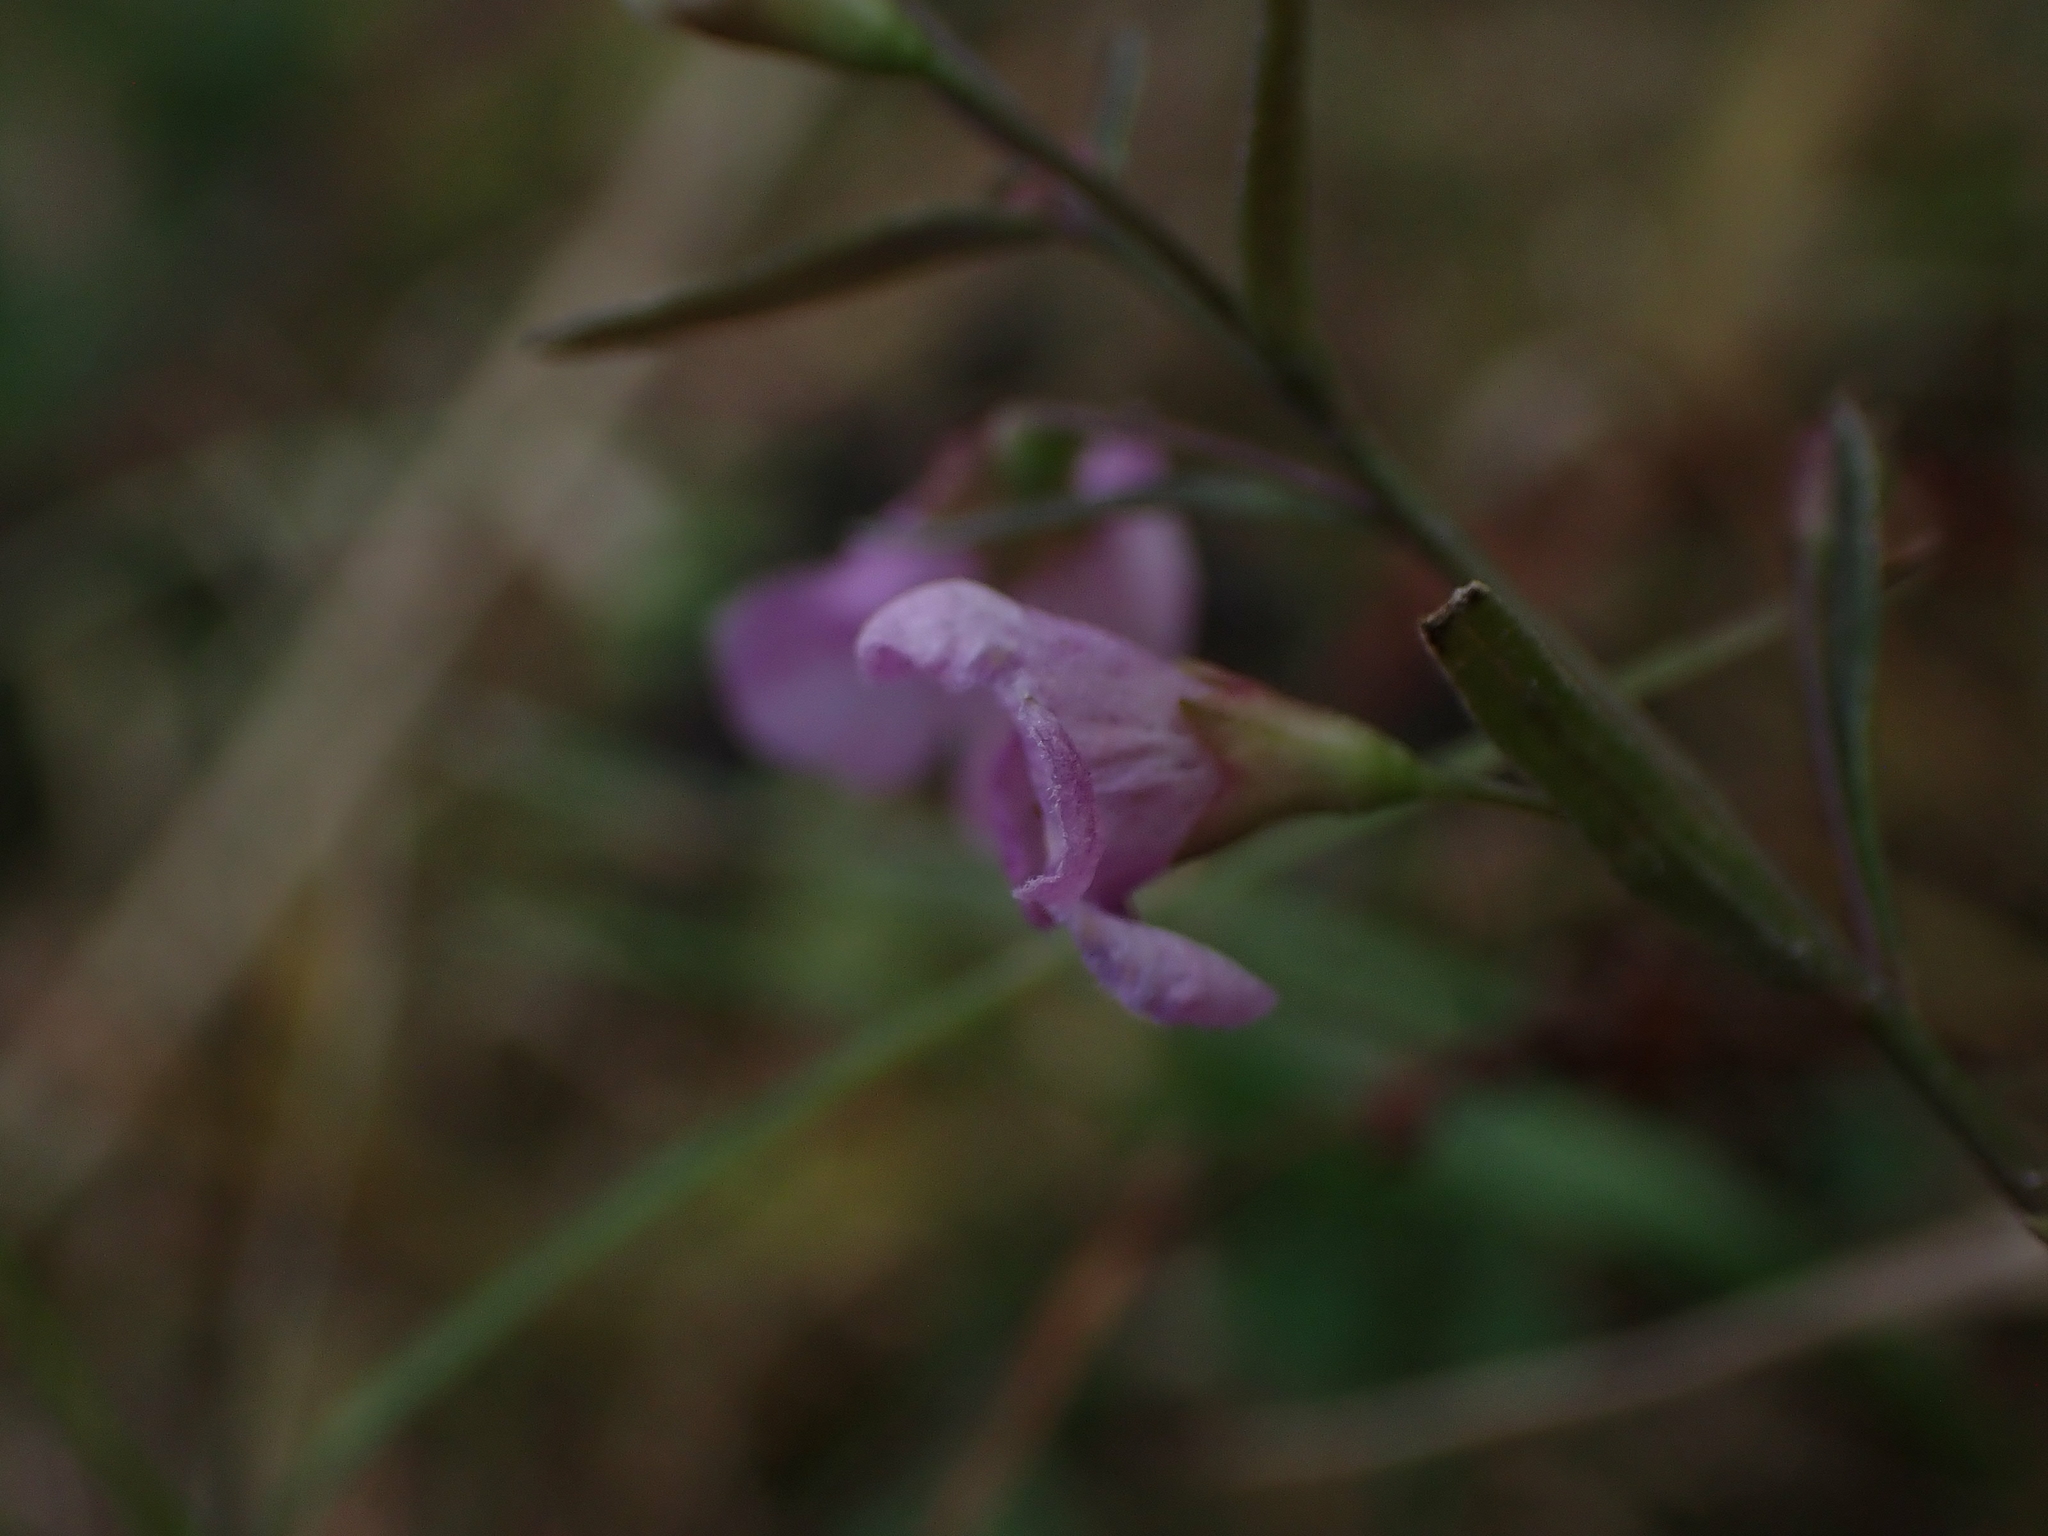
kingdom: Plantae
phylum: Tracheophyta
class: Magnoliopsida
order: Lamiales
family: Orobanchaceae
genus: Agalinis
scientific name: Agalinis tenuifolia
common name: Slender agalinis
